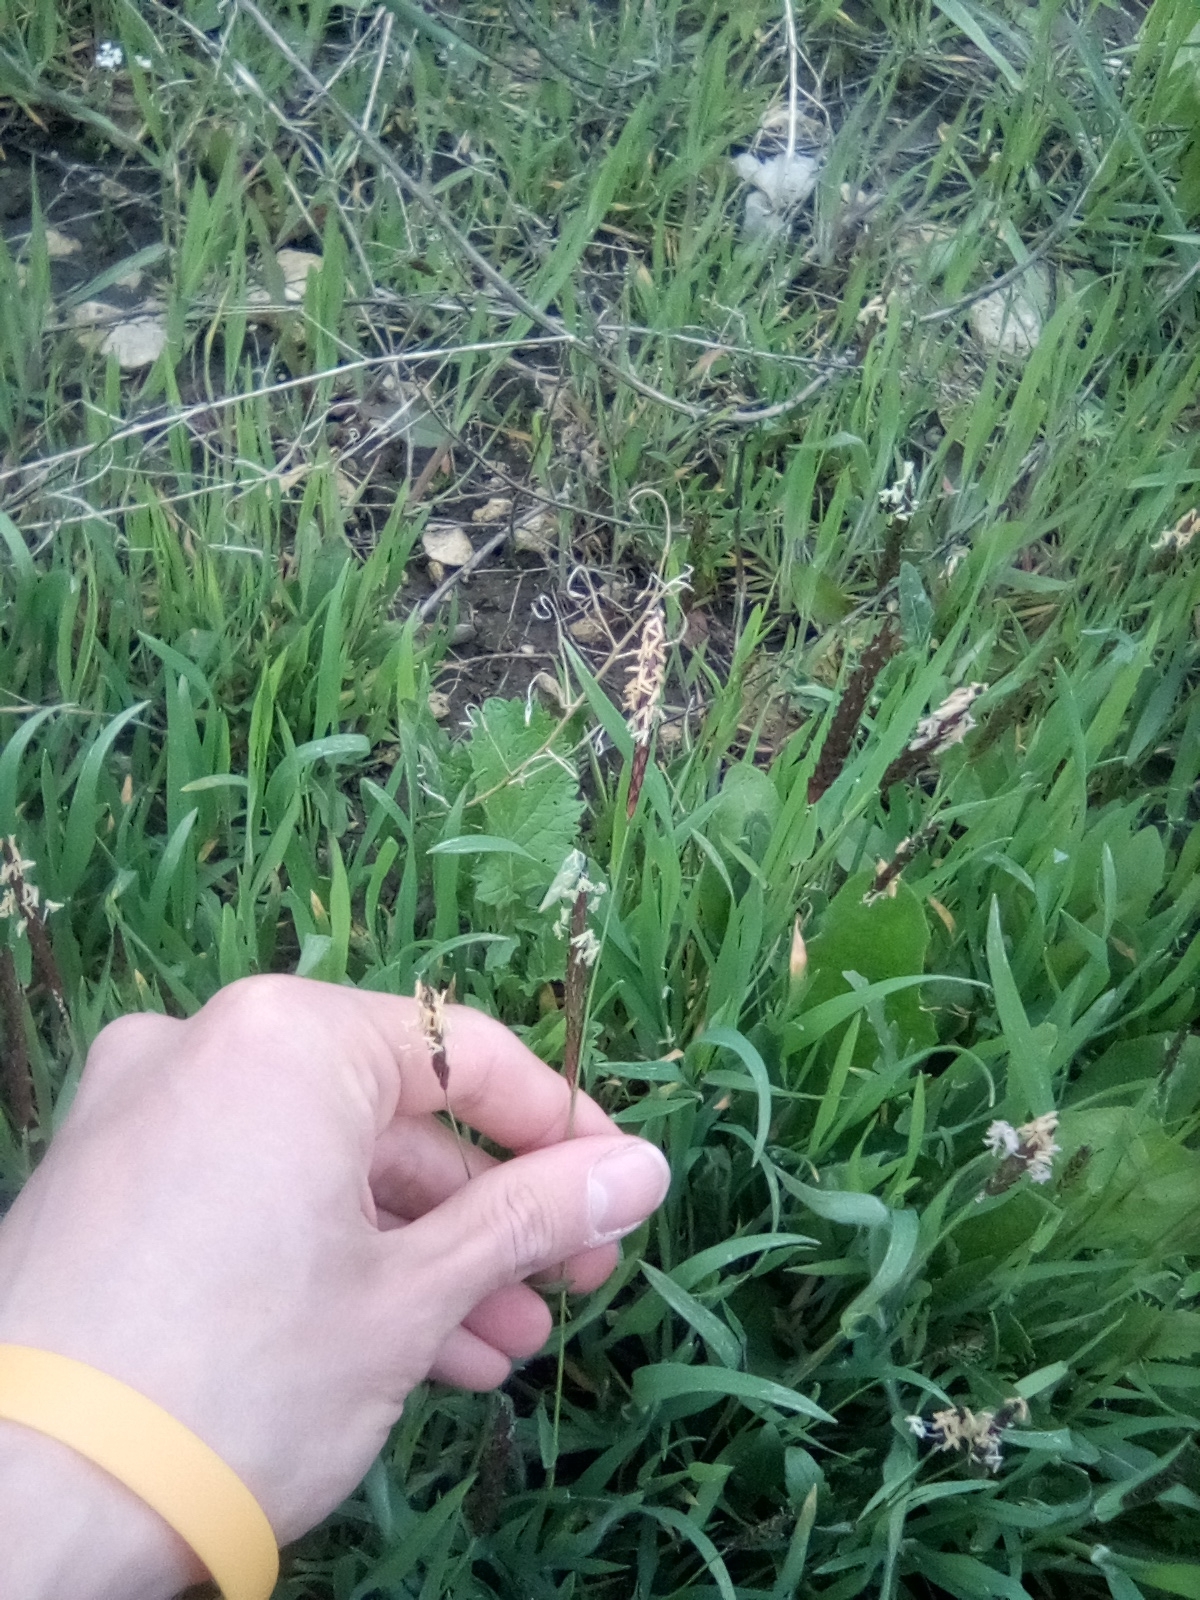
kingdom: Plantae
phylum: Tracheophyta
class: Liliopsida
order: Poales
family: Poaceae
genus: Alopecurus
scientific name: Alopecurus myosuroides
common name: Black-grass
